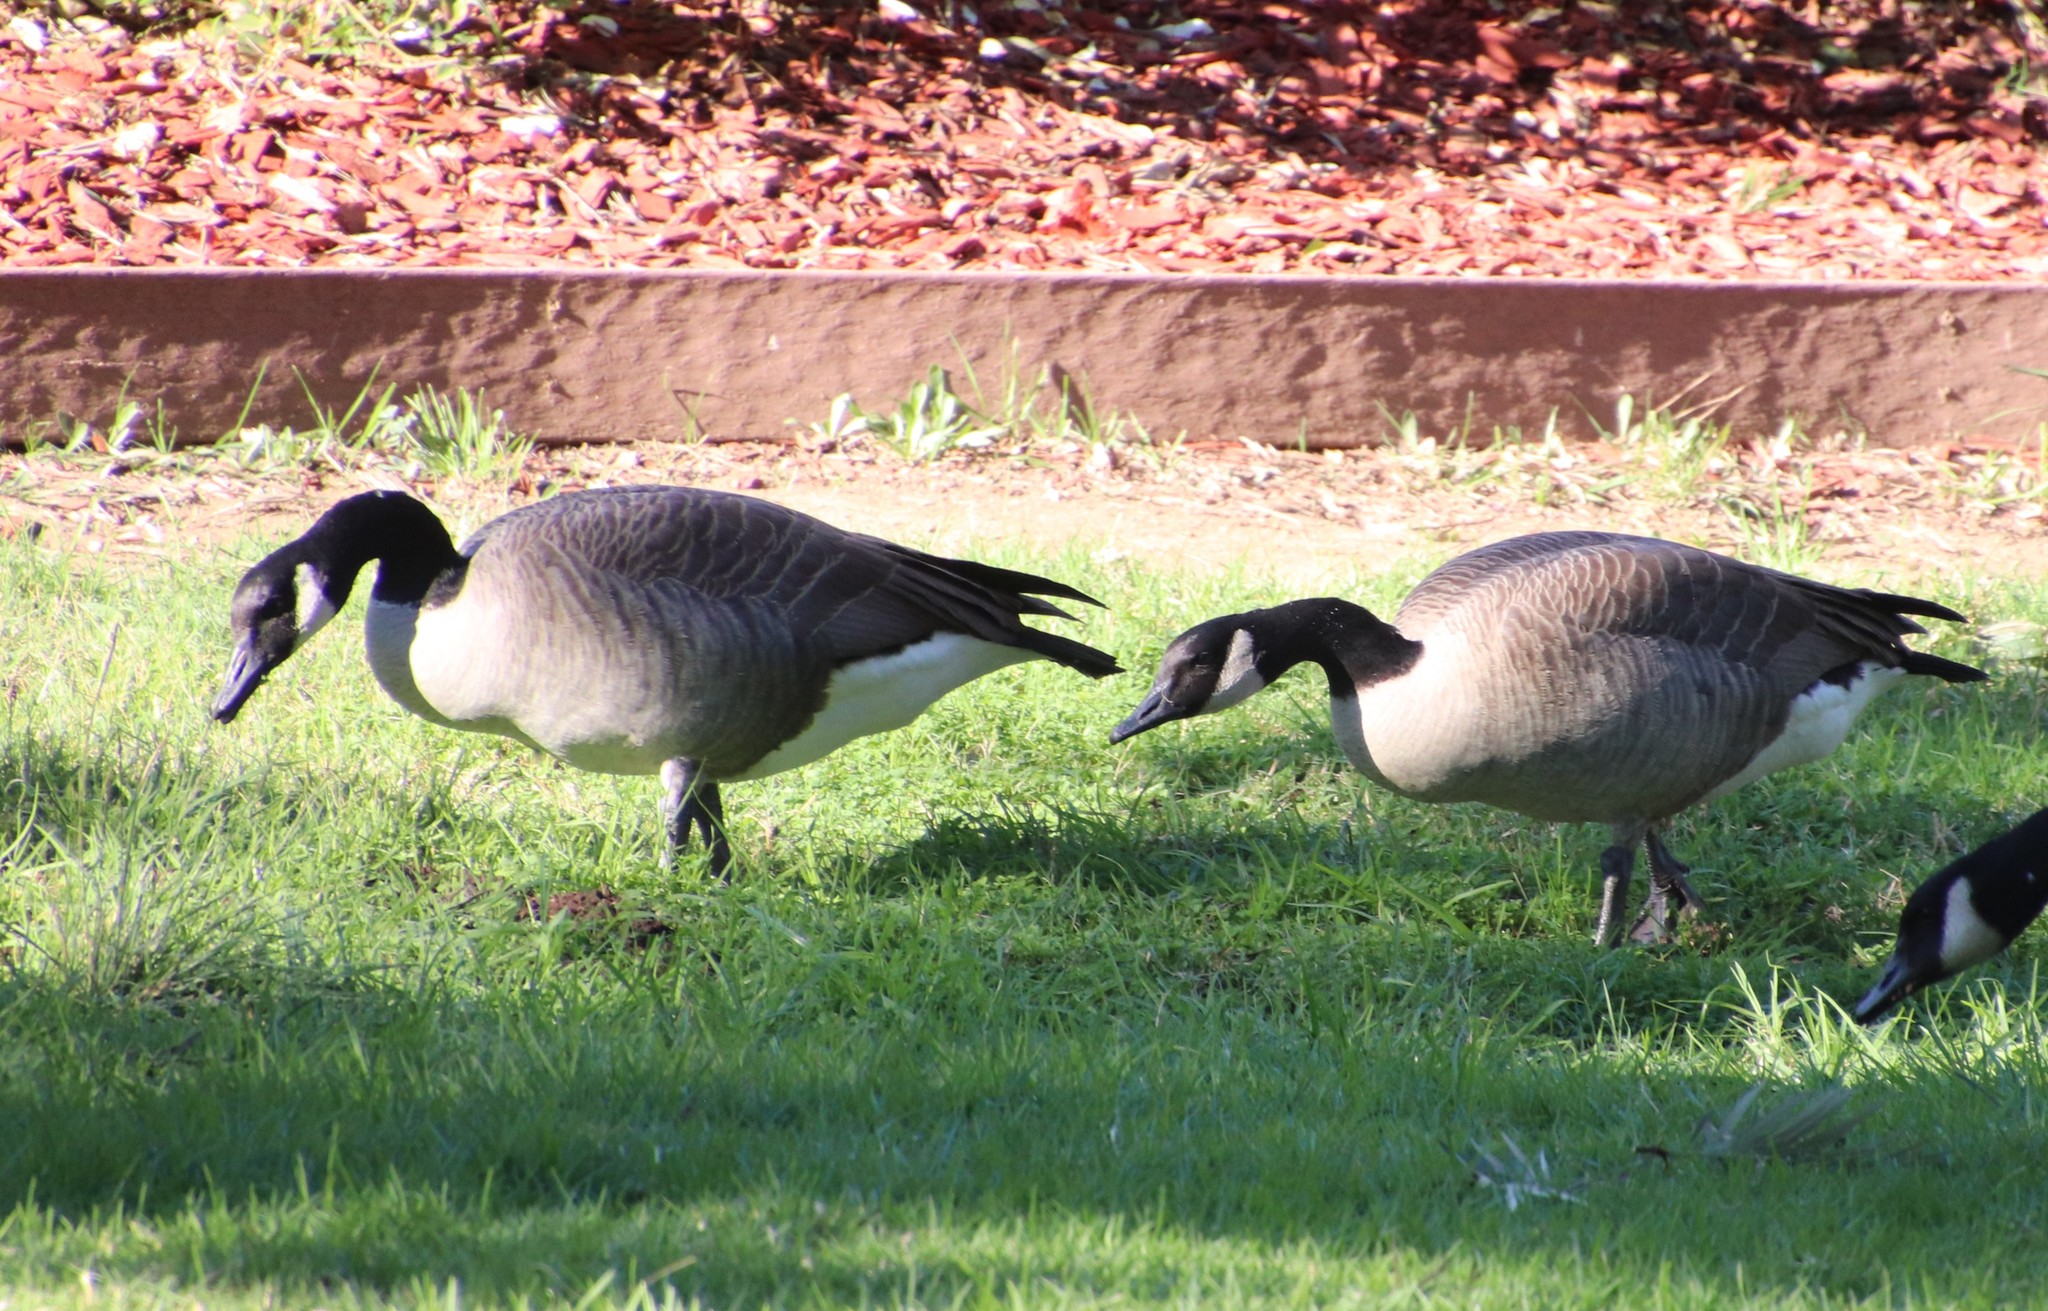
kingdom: Animalia
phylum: Chordata
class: Aves
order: Anseriformes
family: Anatidae
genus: Branta
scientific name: Branta canadensis
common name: Canada goose
